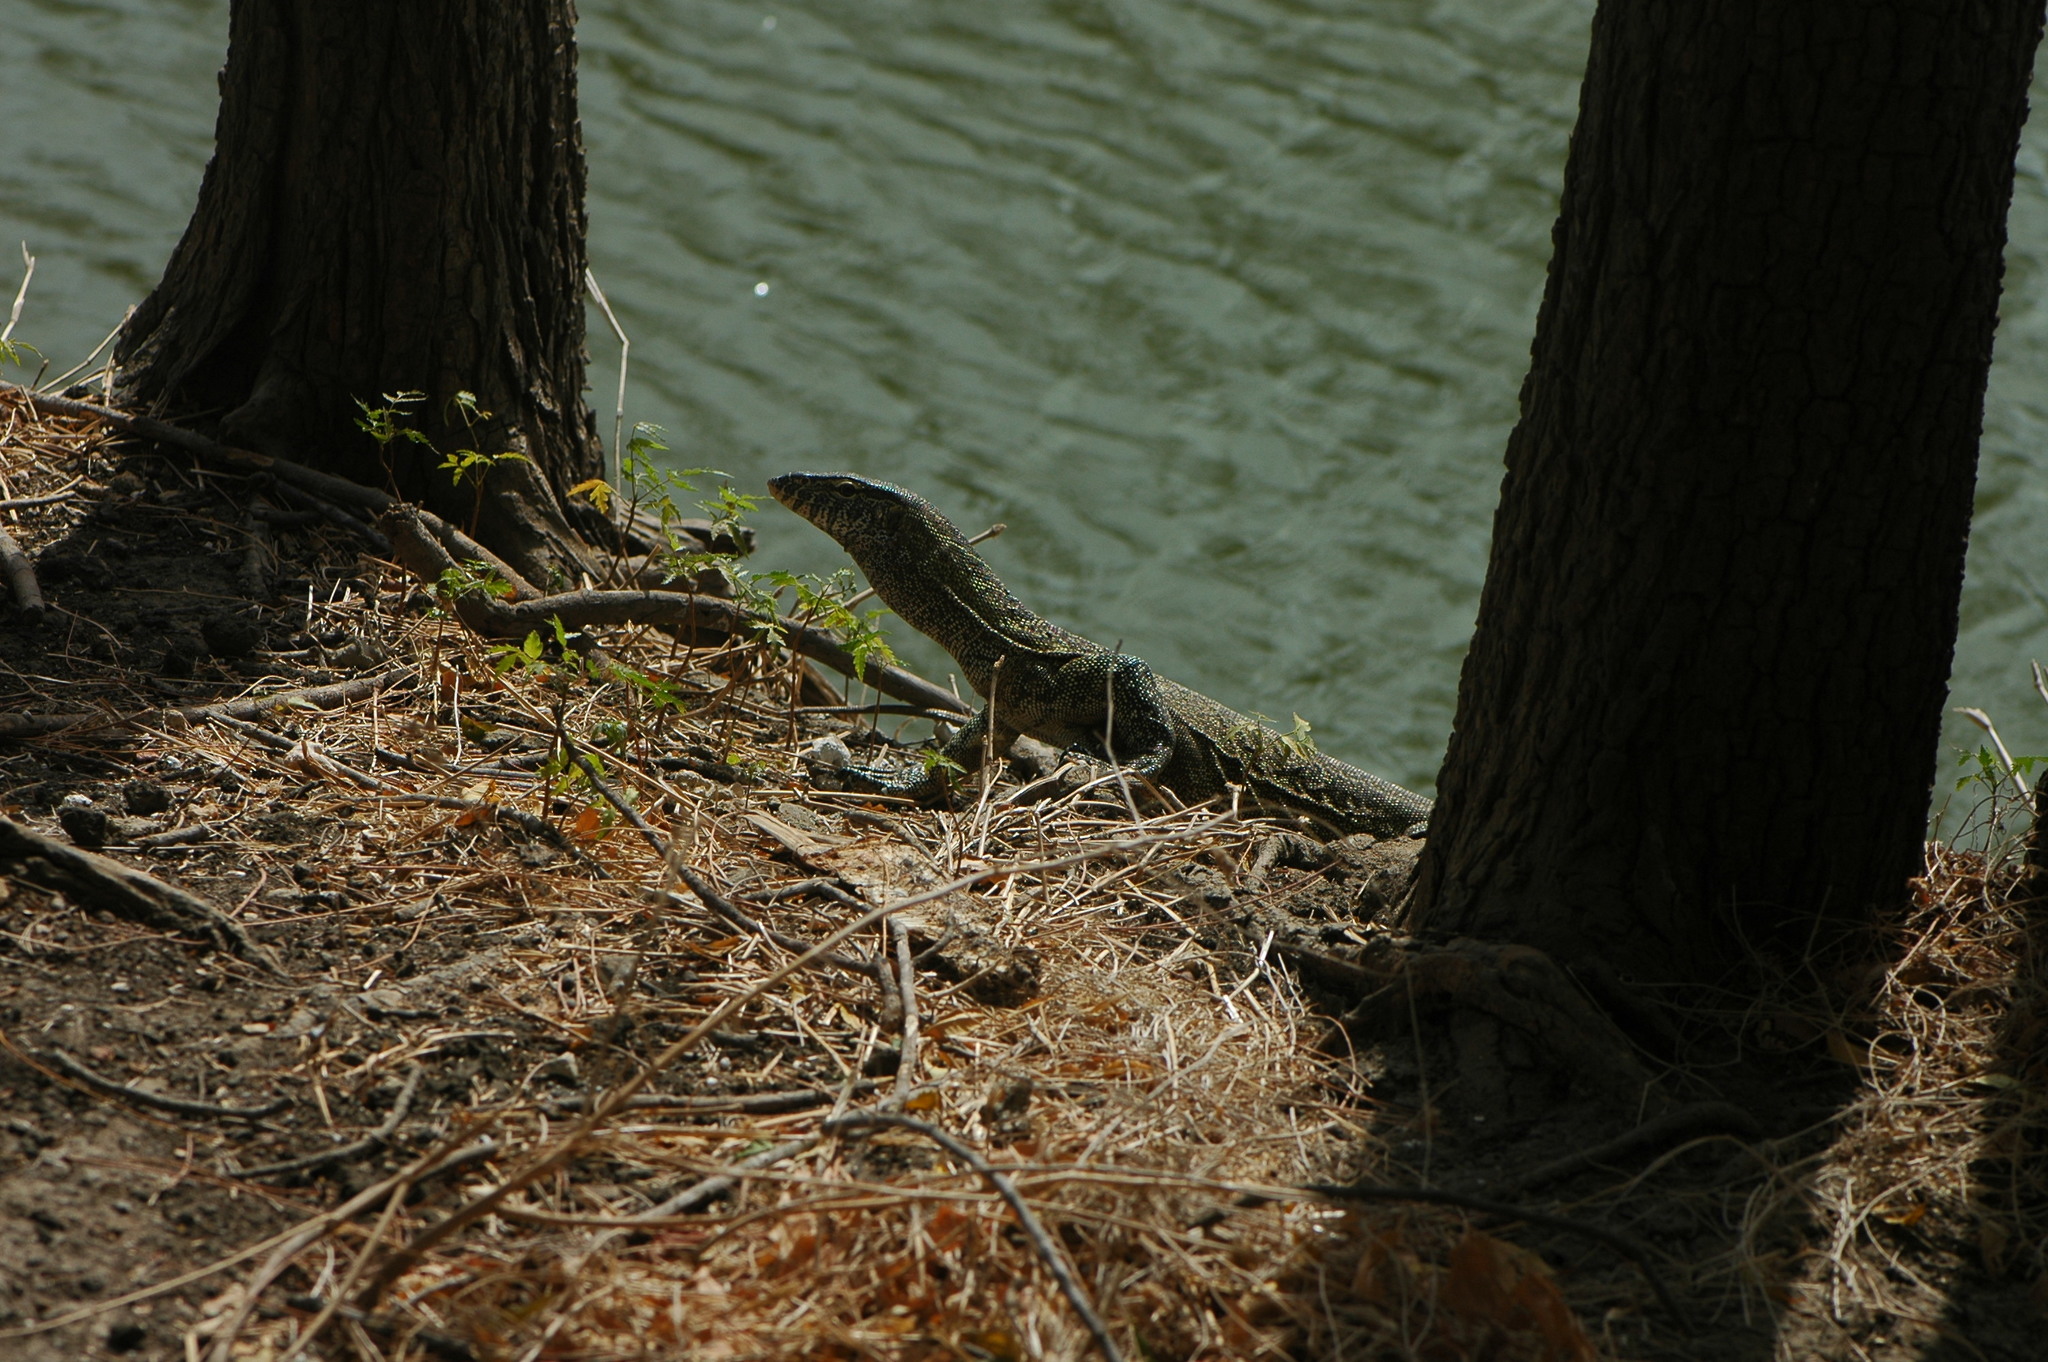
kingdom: Animalia
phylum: Chordata
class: Squamata
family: Varanidae
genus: Varanus
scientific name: Varanus niloticus
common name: Nile monitor
